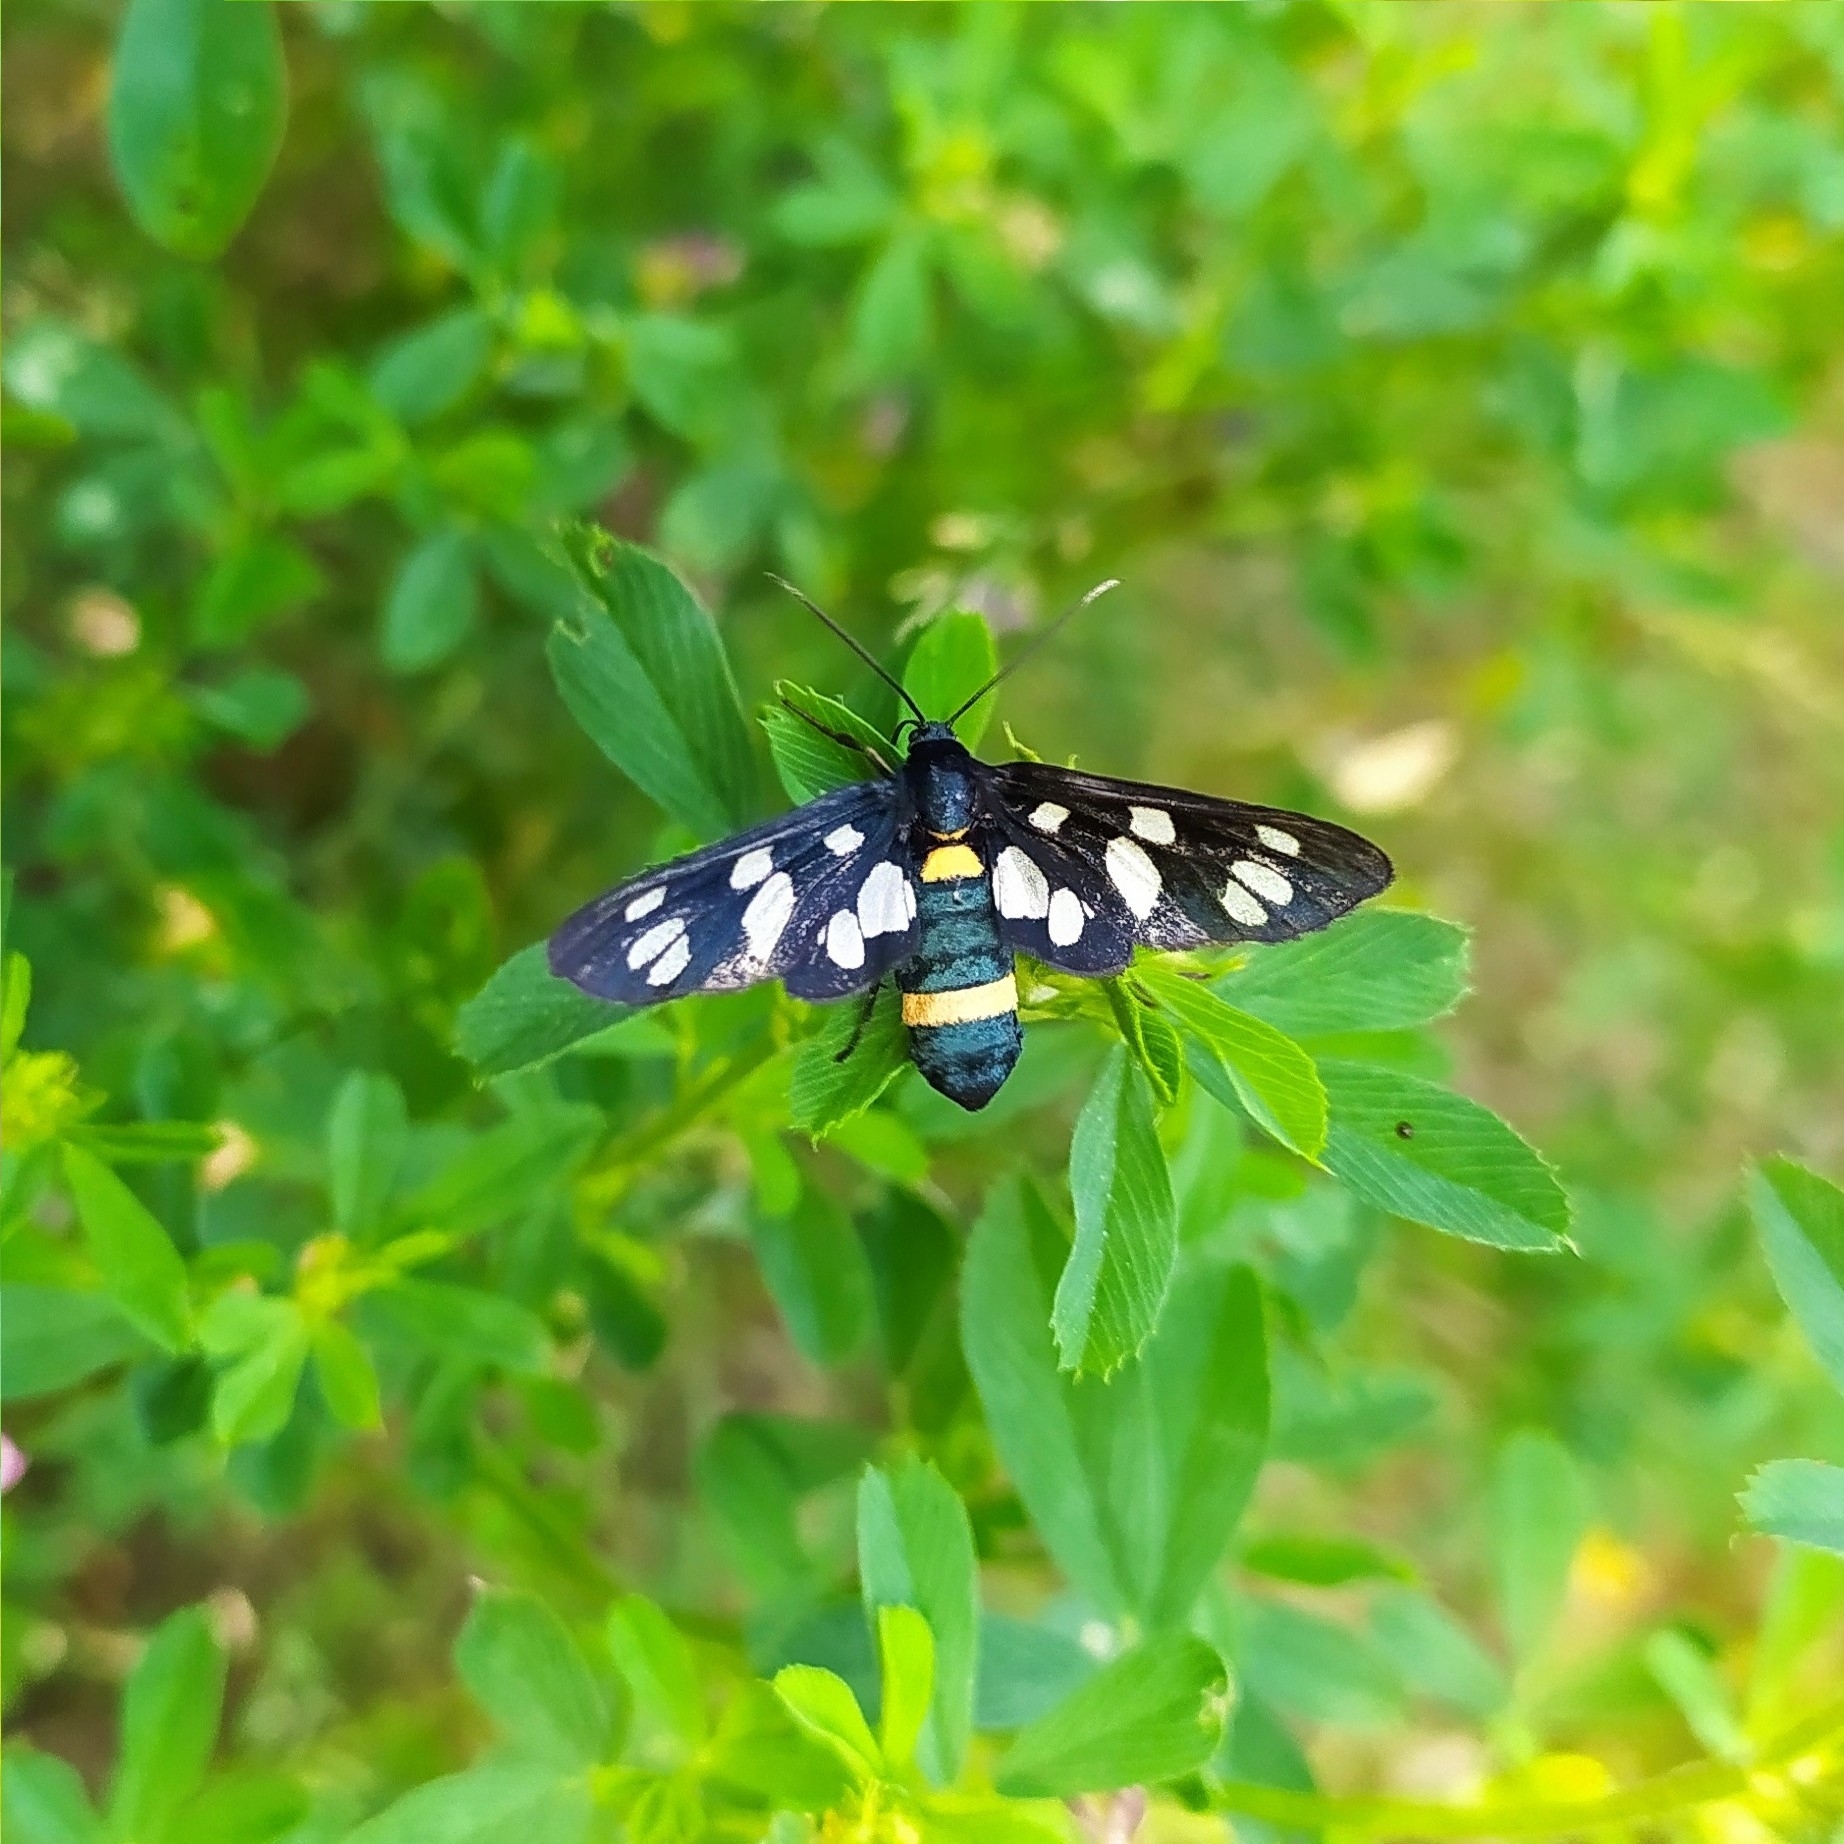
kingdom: Animalia
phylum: Arthropoda
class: Insecta
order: Lepidoptera
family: Erebidae
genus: Amata
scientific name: Amata nigricornis
